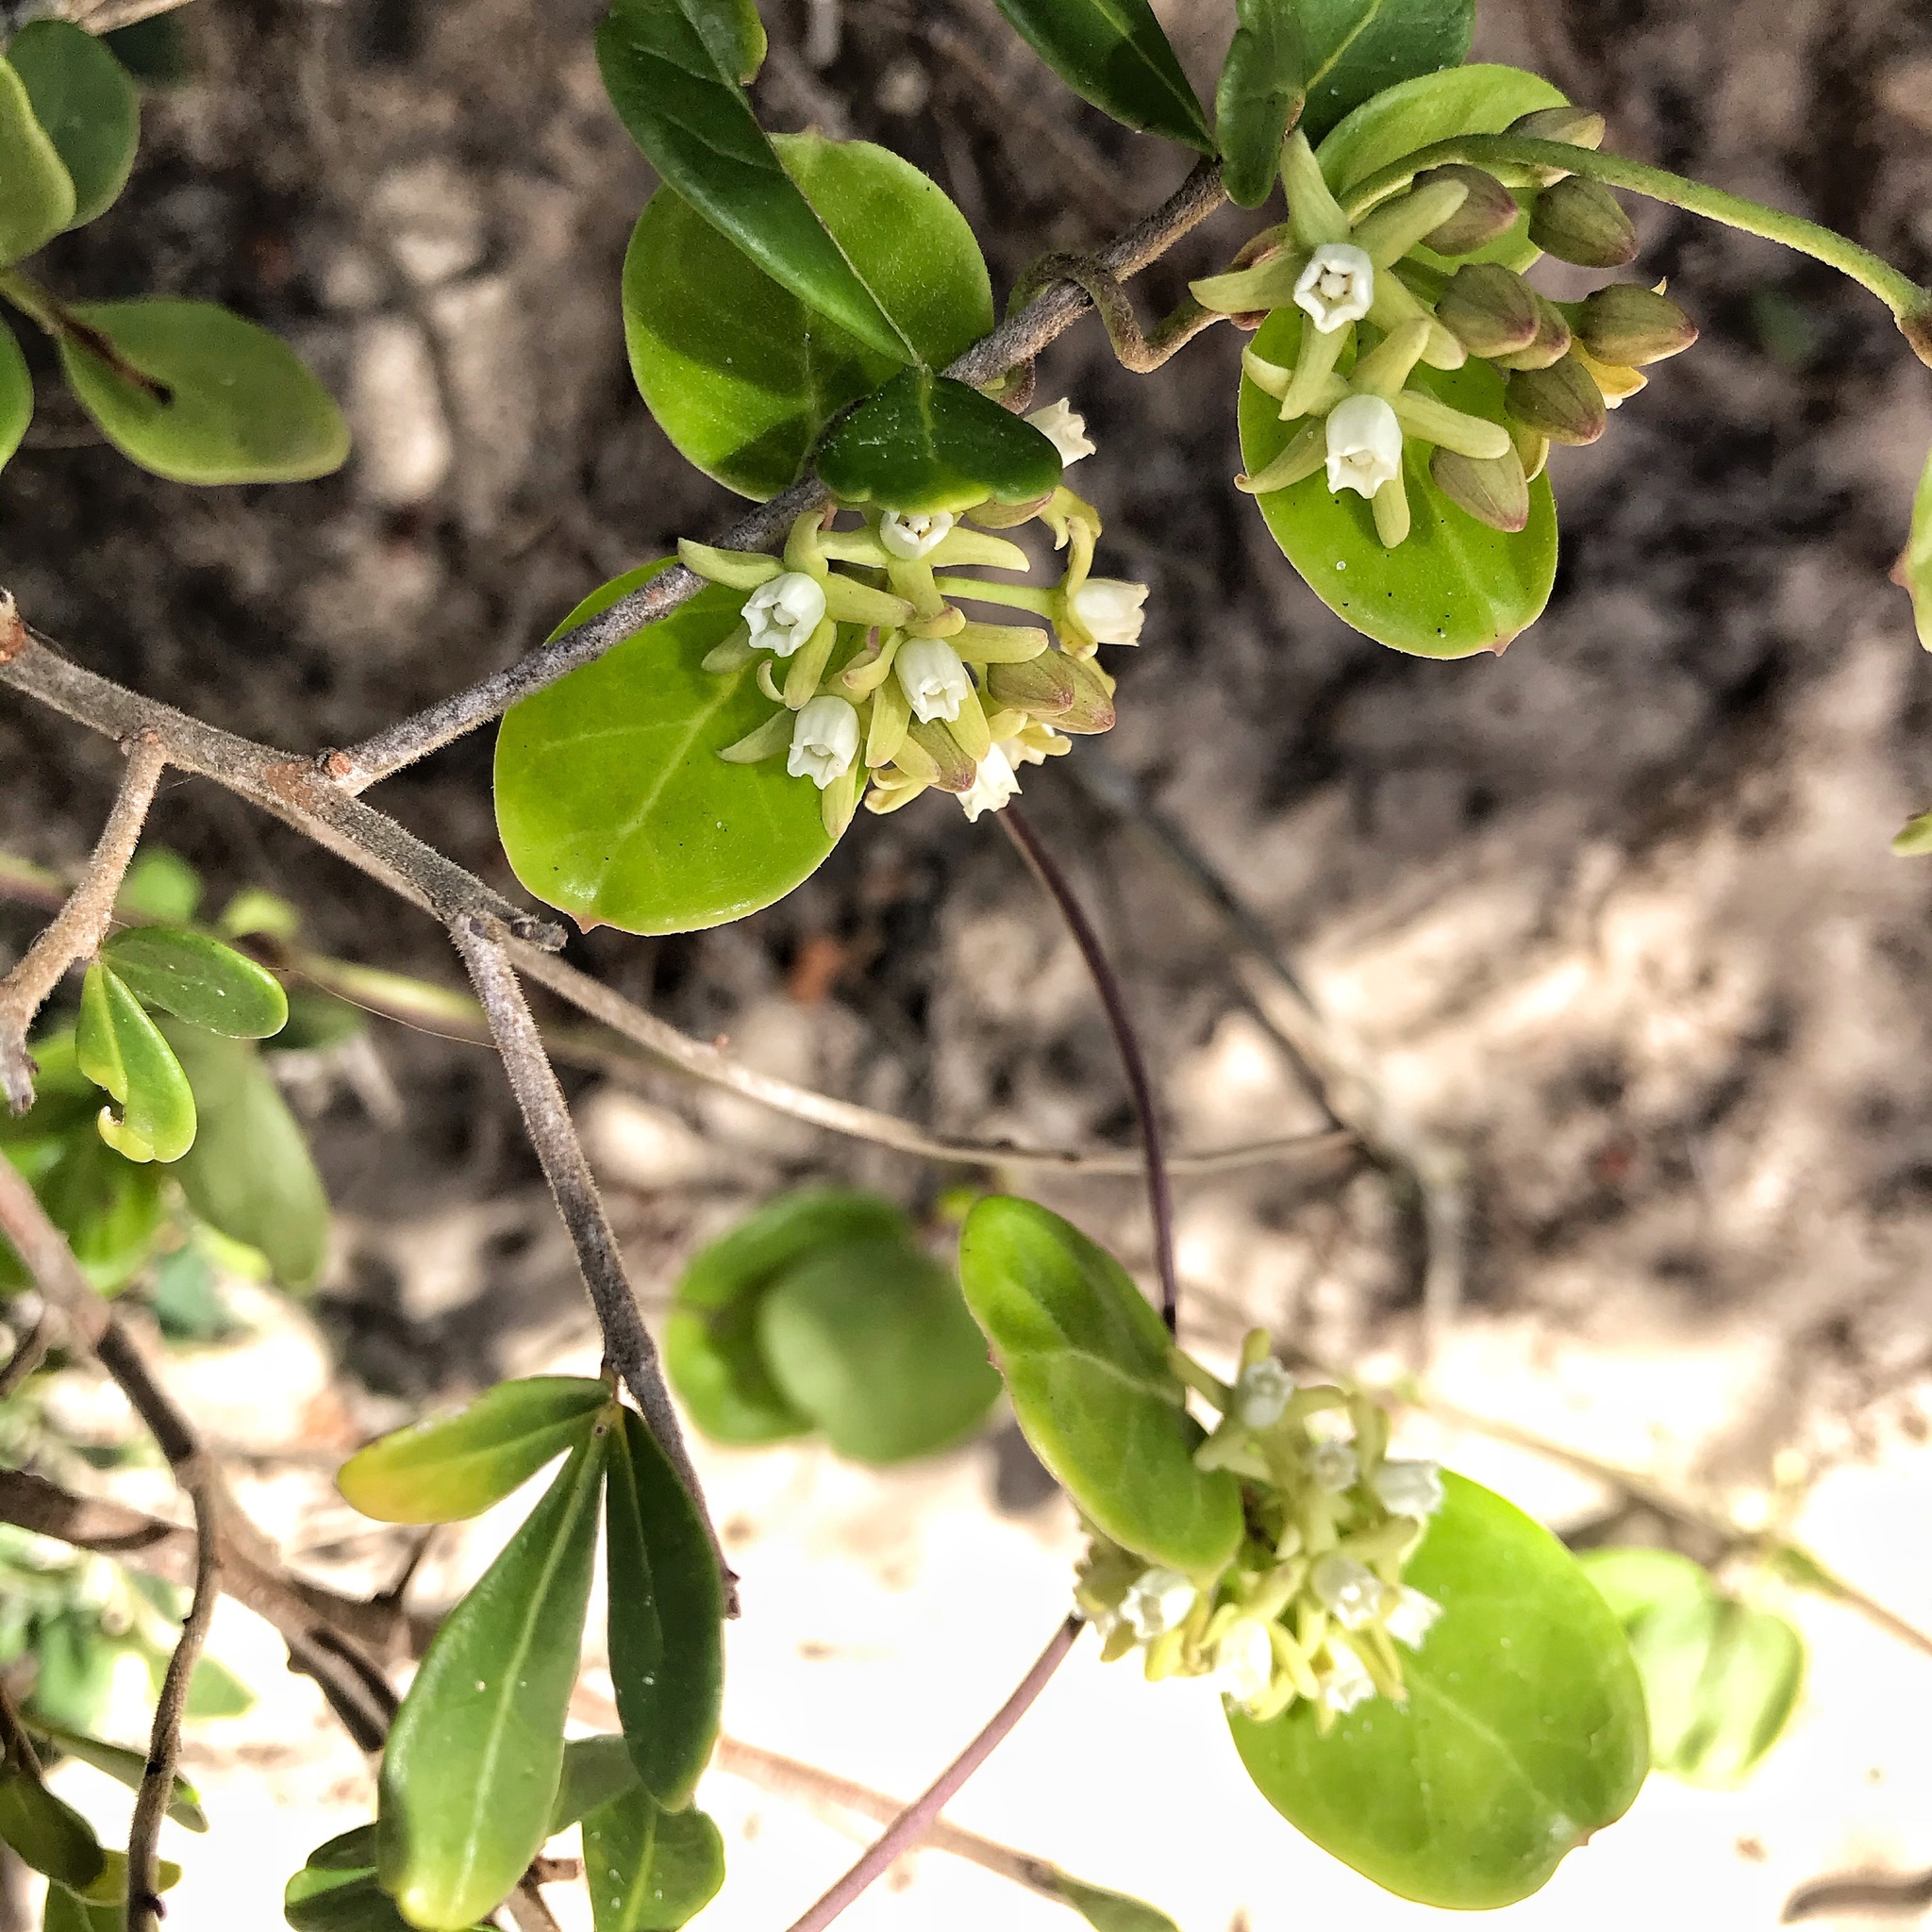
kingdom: Plantae
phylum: Tracheophyta
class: Magnoliopsida
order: Gentianales
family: Apocynaceae
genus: Cynanchum
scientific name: Cynanchum natalitium
